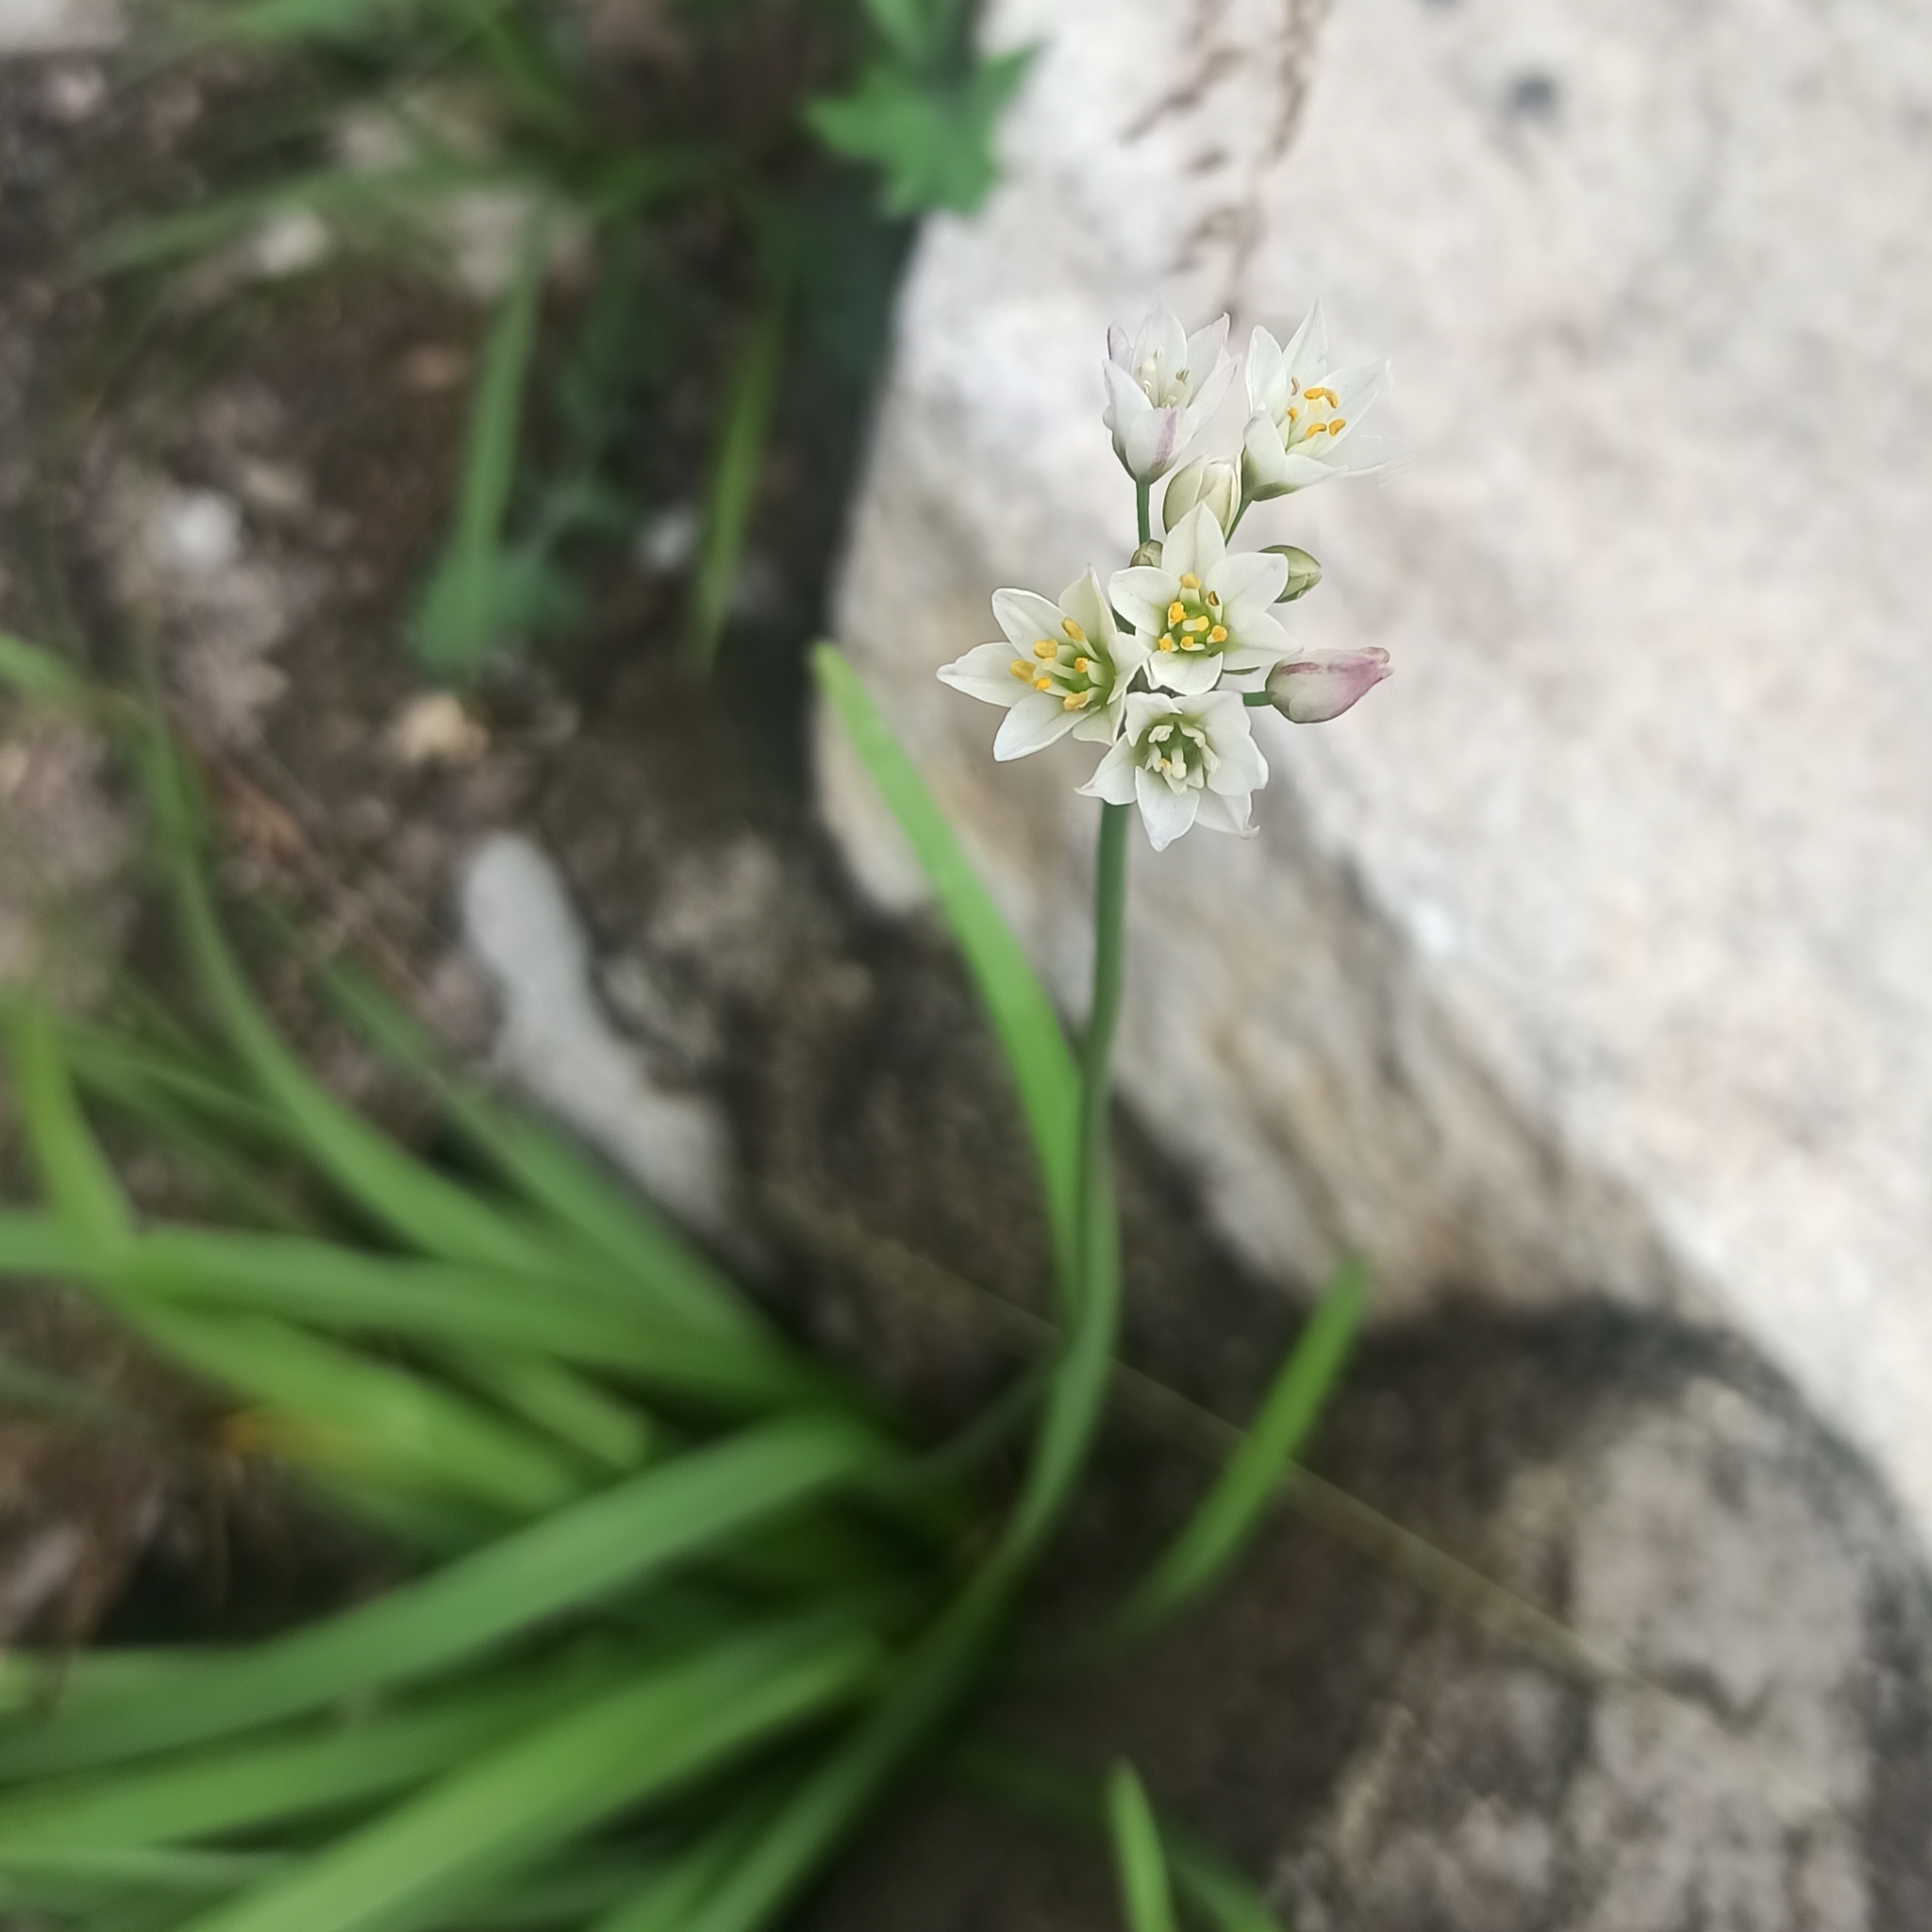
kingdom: Plantae
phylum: Tracheophyta
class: Liliopsida
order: Asparagales
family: Amaryllidaceae
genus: Nothoscordum
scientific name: Nothoscordum gracile
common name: Slender false garlic
